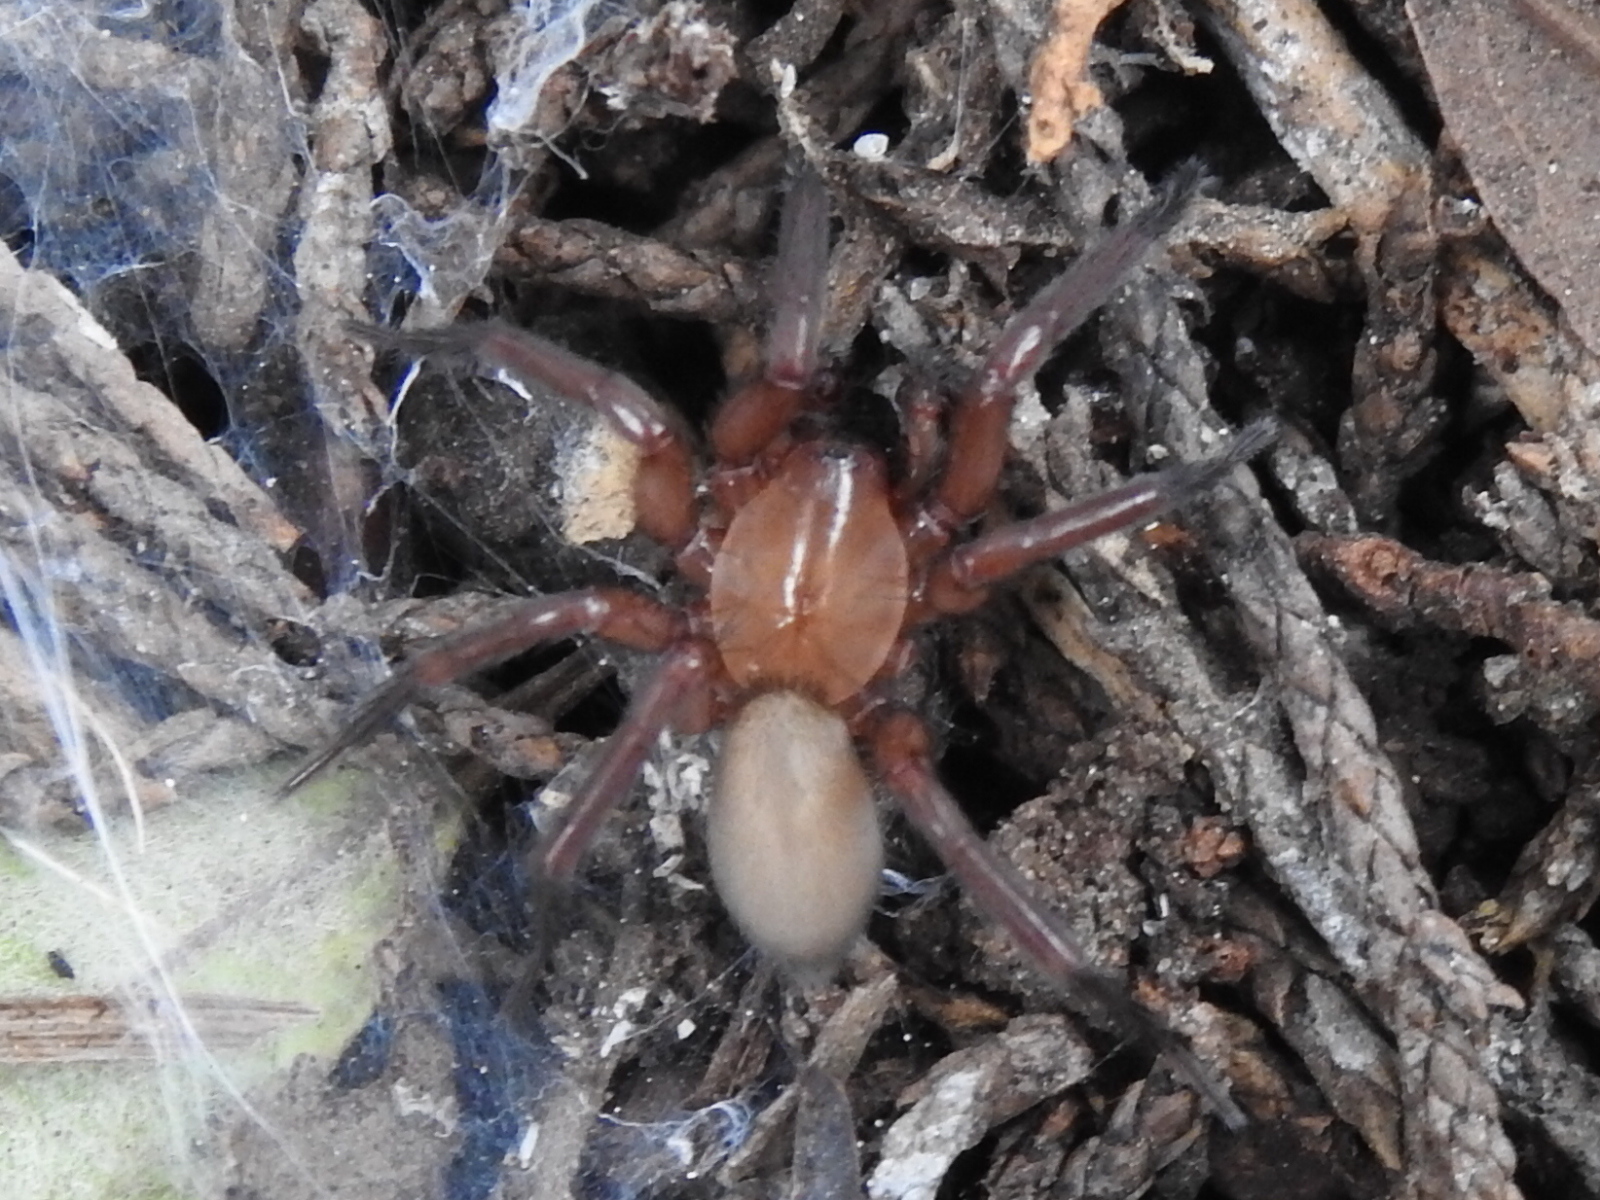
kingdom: Animalia
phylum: Arthropoda
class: Arachnida
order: Araneae
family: Hahniidae
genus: Cicurina
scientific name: Cicurina
